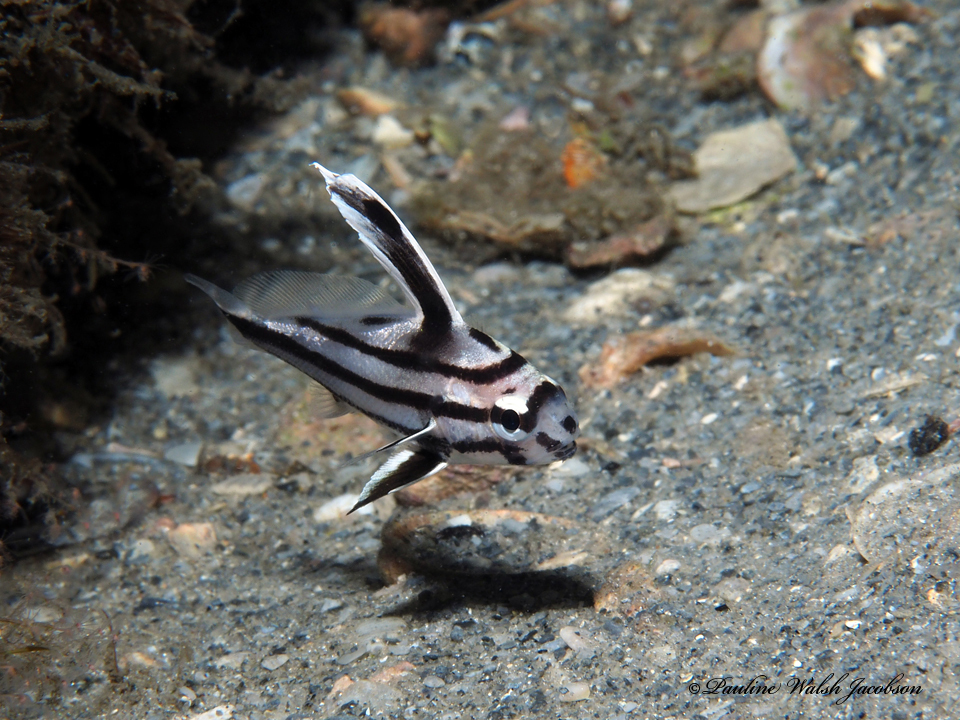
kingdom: Animalia
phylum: Chordata
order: Perciformes
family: Sciaenidae
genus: Pareques
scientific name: Pareques acuminatus
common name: High-hat
